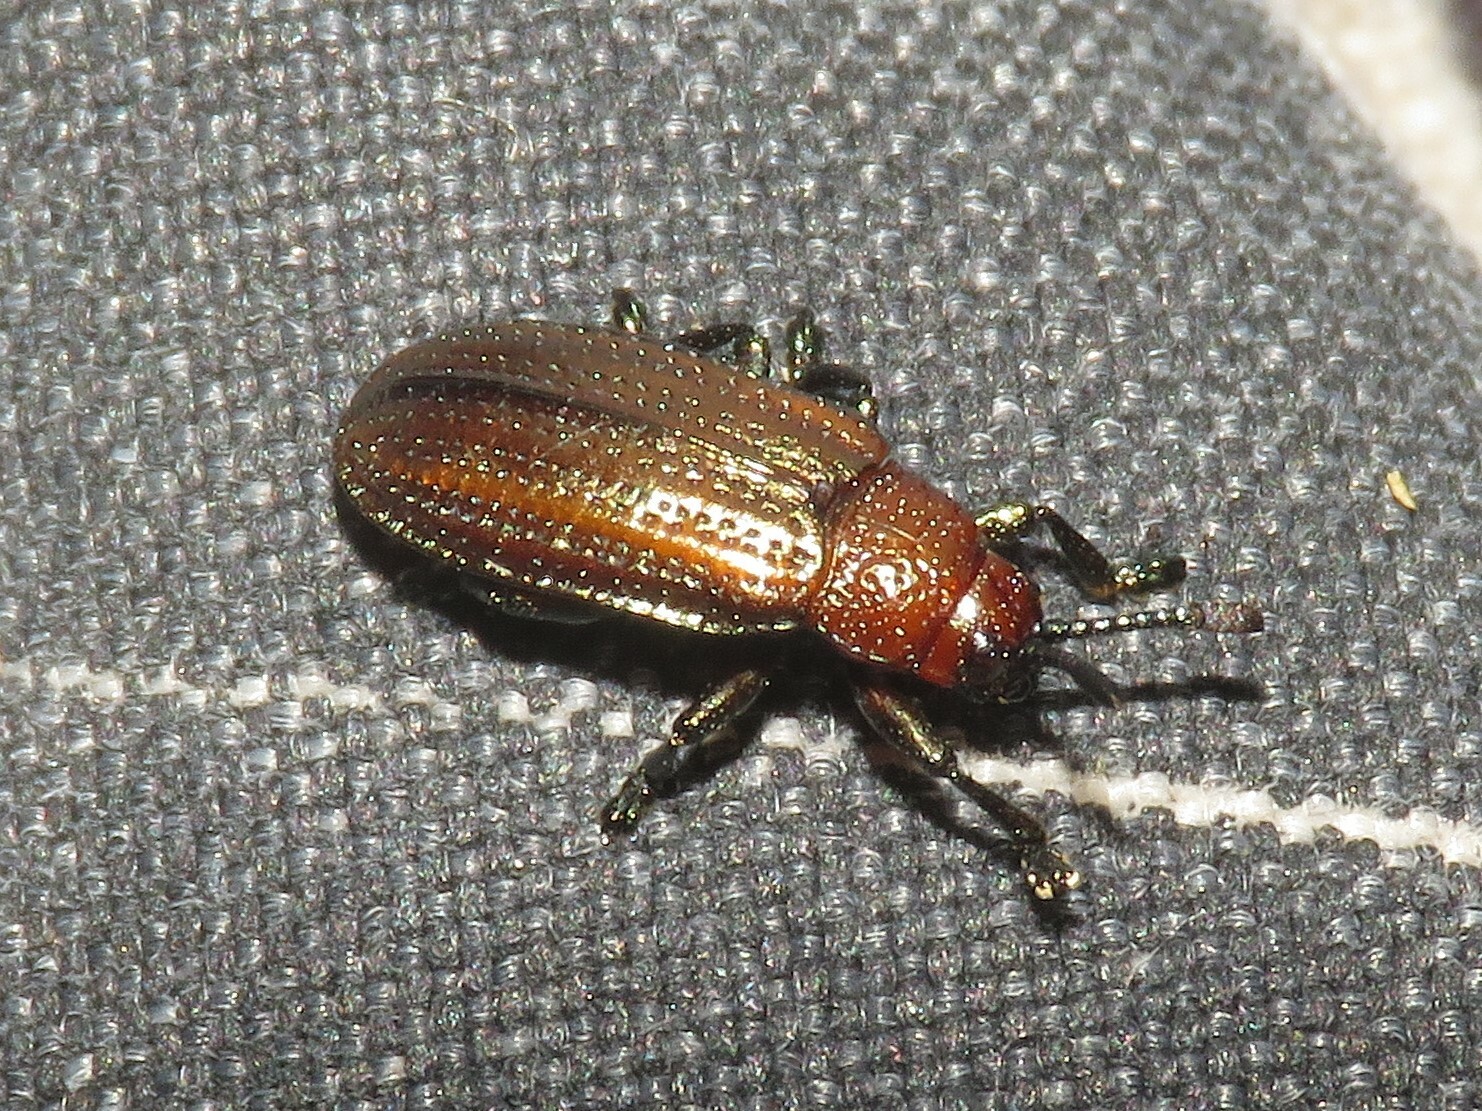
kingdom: Animalia
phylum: Arthropoda
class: Insecta
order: Coleoptera
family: Chrysomelidae
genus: Microrhopala
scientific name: Microrhopala vittata
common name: Goldenrod leaf miner beetle
